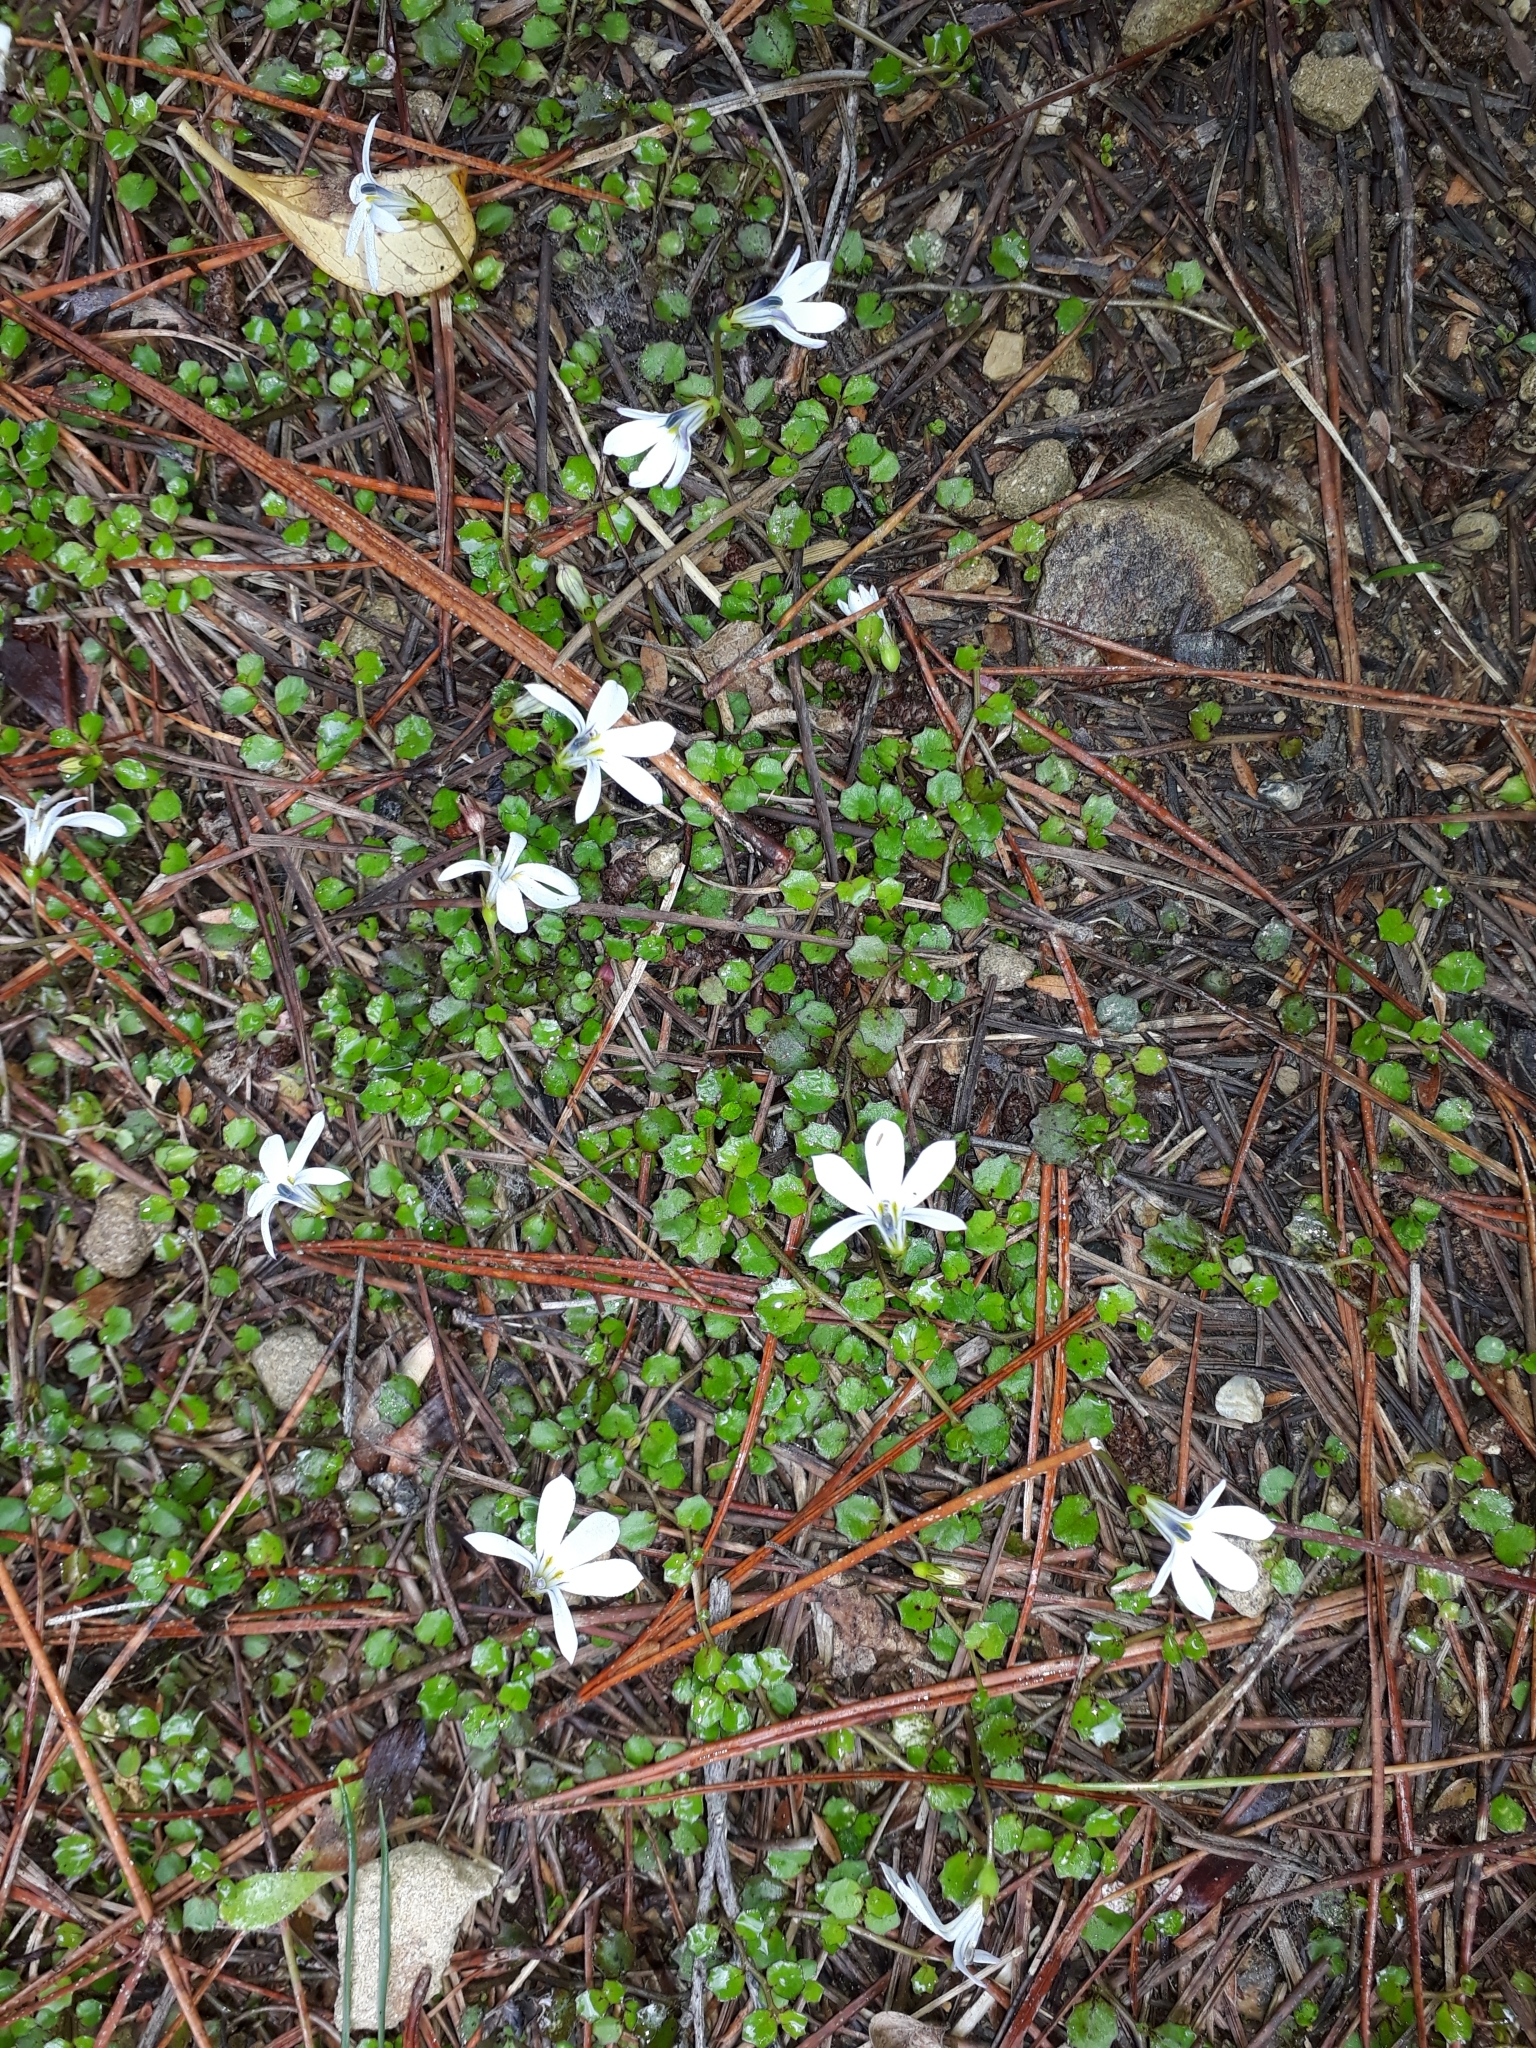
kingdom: Plantae
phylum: Tracheophyta
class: Magnoliopsida
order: Asterales
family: Campanulaceae
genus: Lobelia
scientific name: Lobelia angulata
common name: Lawn lobelia
